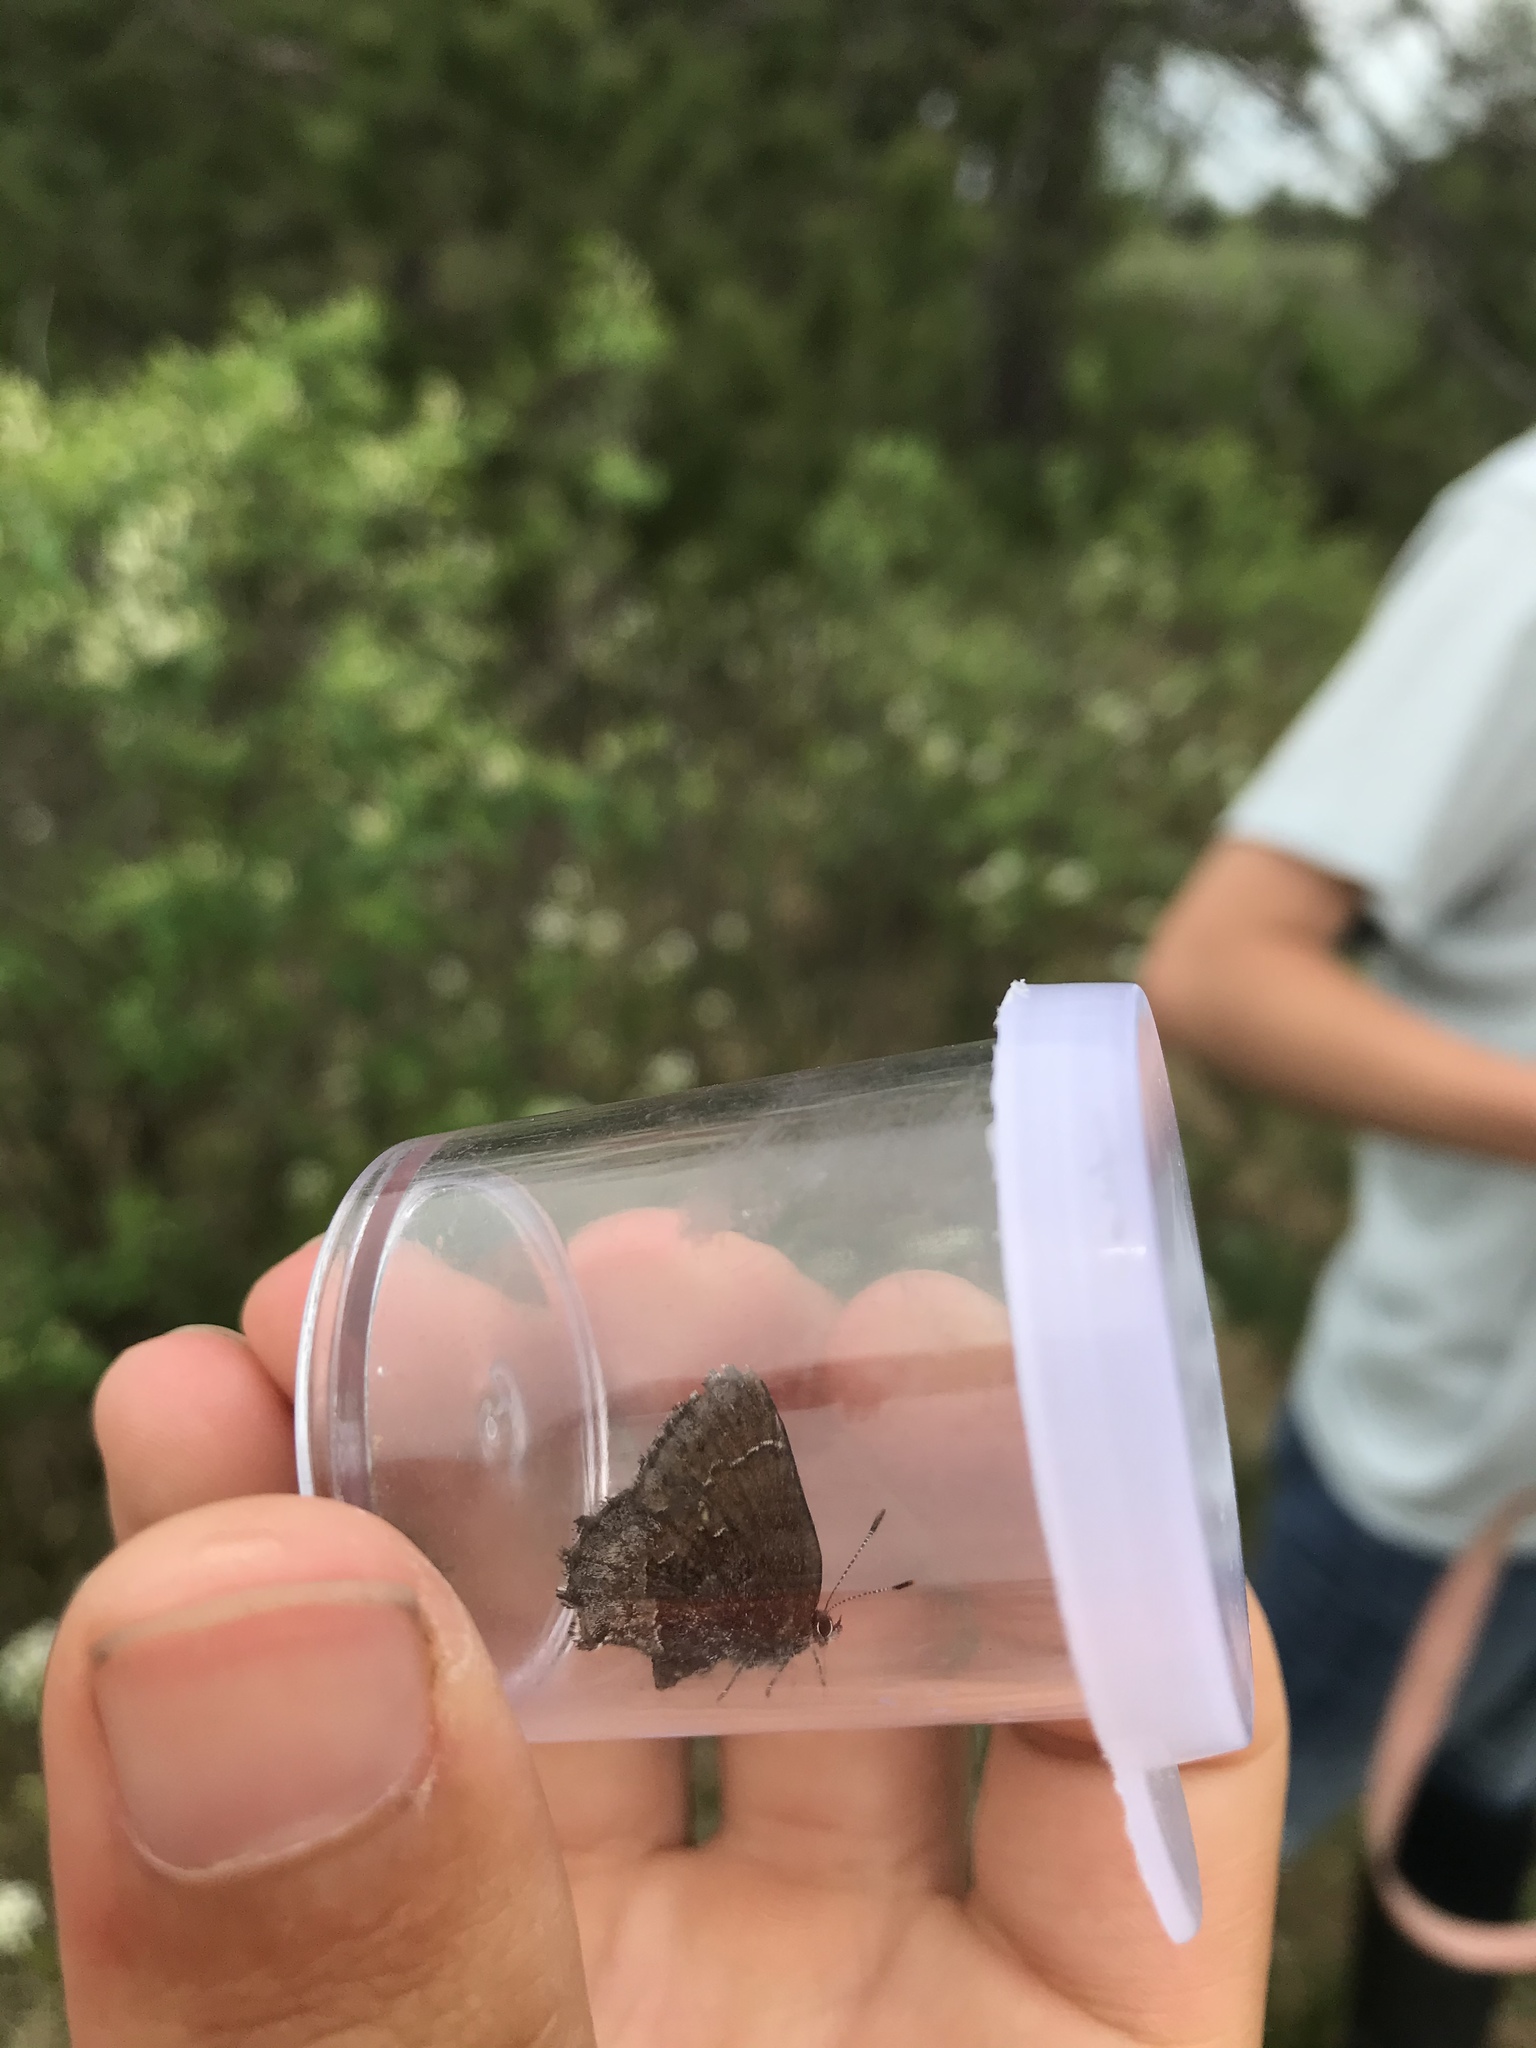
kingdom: Animalia
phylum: Arthropoda
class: Insecta
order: Lepidoptera
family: Lycaenidae
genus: Callophrys
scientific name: Callophrys polios
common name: Hoary elfin
